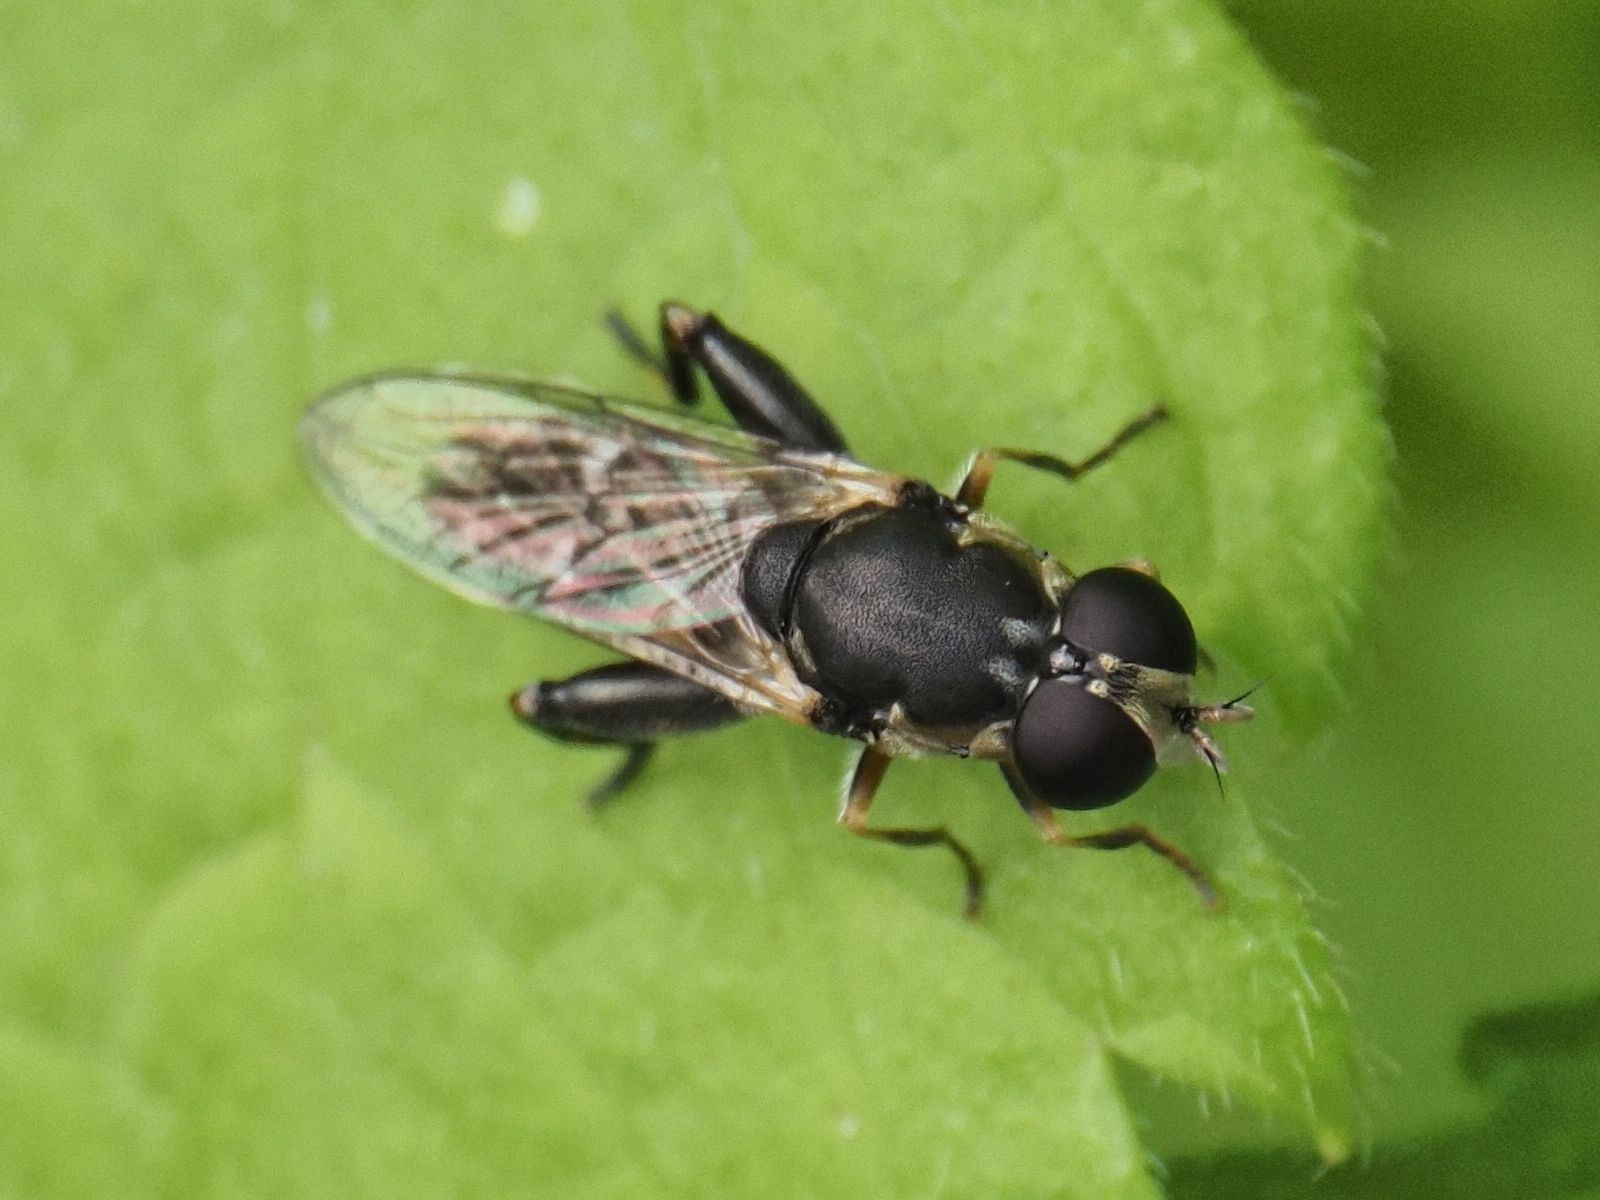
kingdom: Animalia
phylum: Arthropoda
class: Insecta
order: Diptera
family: Syrphidae
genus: Syritta
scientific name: Syritta pipiens
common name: Hover fly
